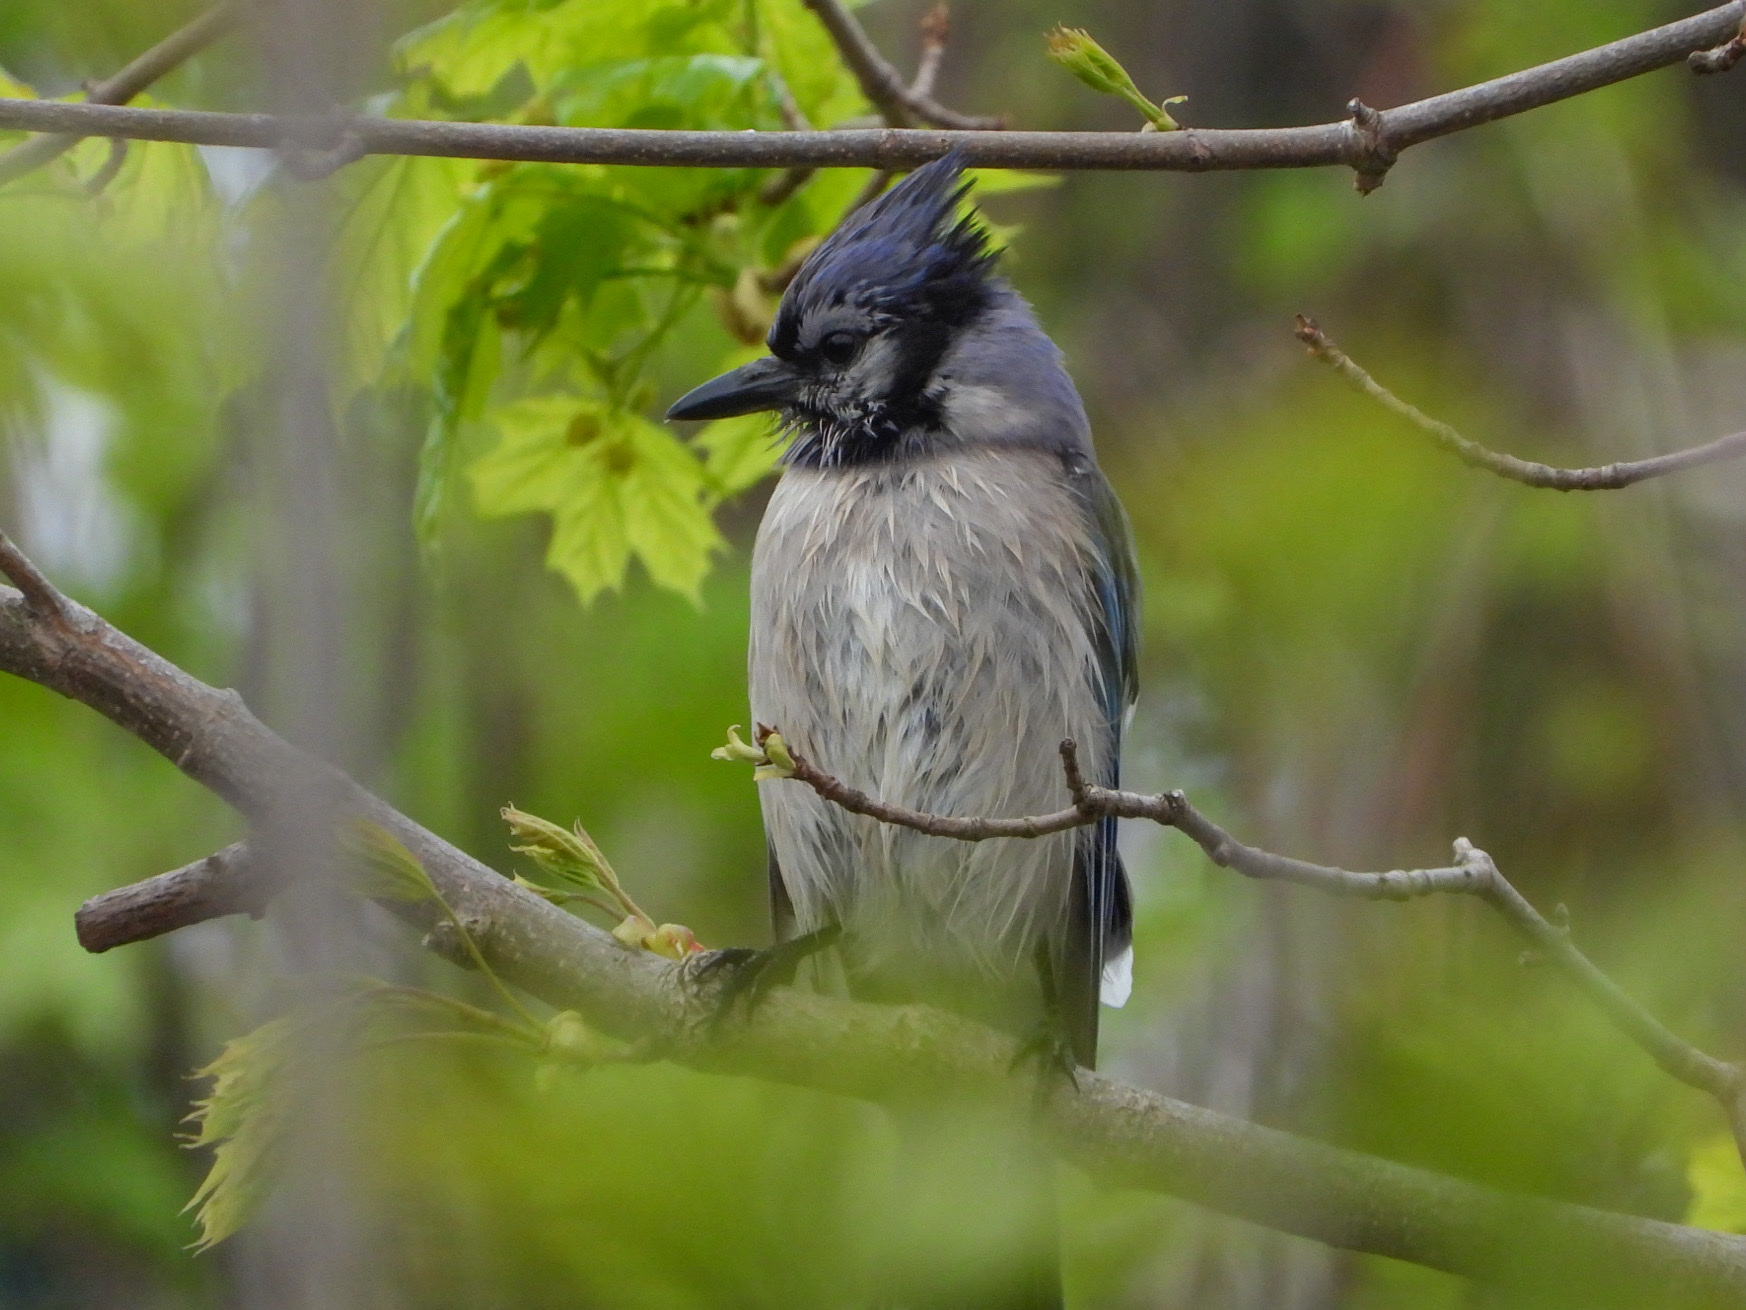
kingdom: Animalia
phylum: Chordata
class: Aves
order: Passeriformes
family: Corvidae
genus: Cyanocitta
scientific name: Cyanocitta cristata
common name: Blue jay
